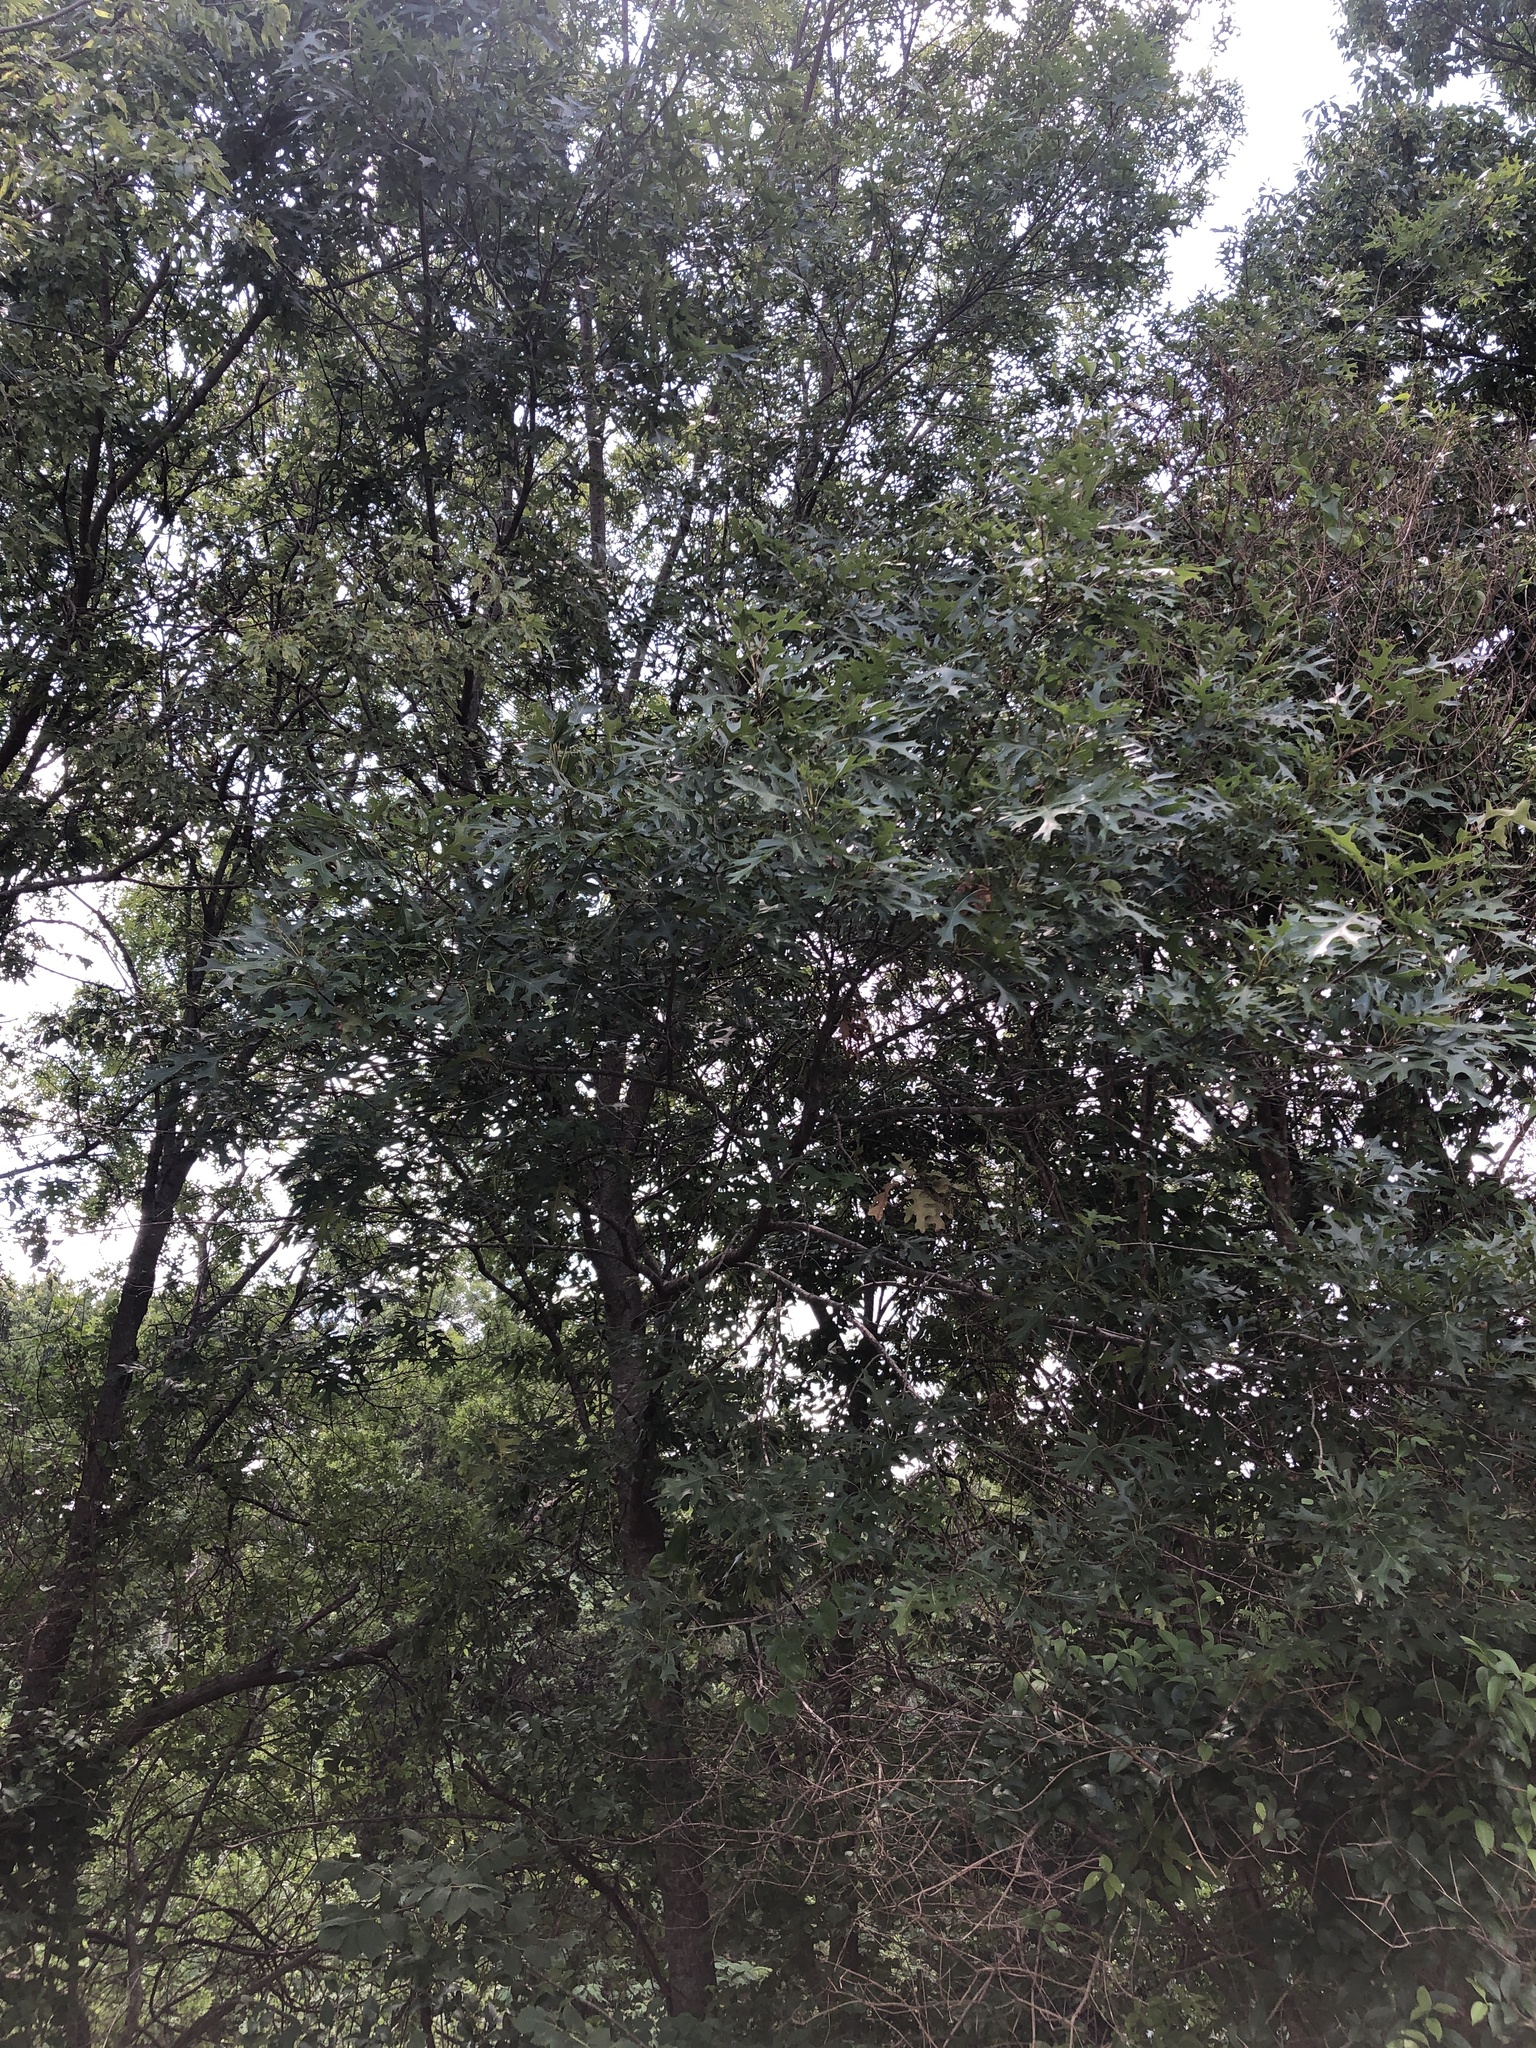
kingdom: Plantae
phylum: Tracheophyta
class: Magnoliopsida
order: Fagales
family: Fagaceae
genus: Quercus
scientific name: Quercus shumardii
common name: Shumard oak
